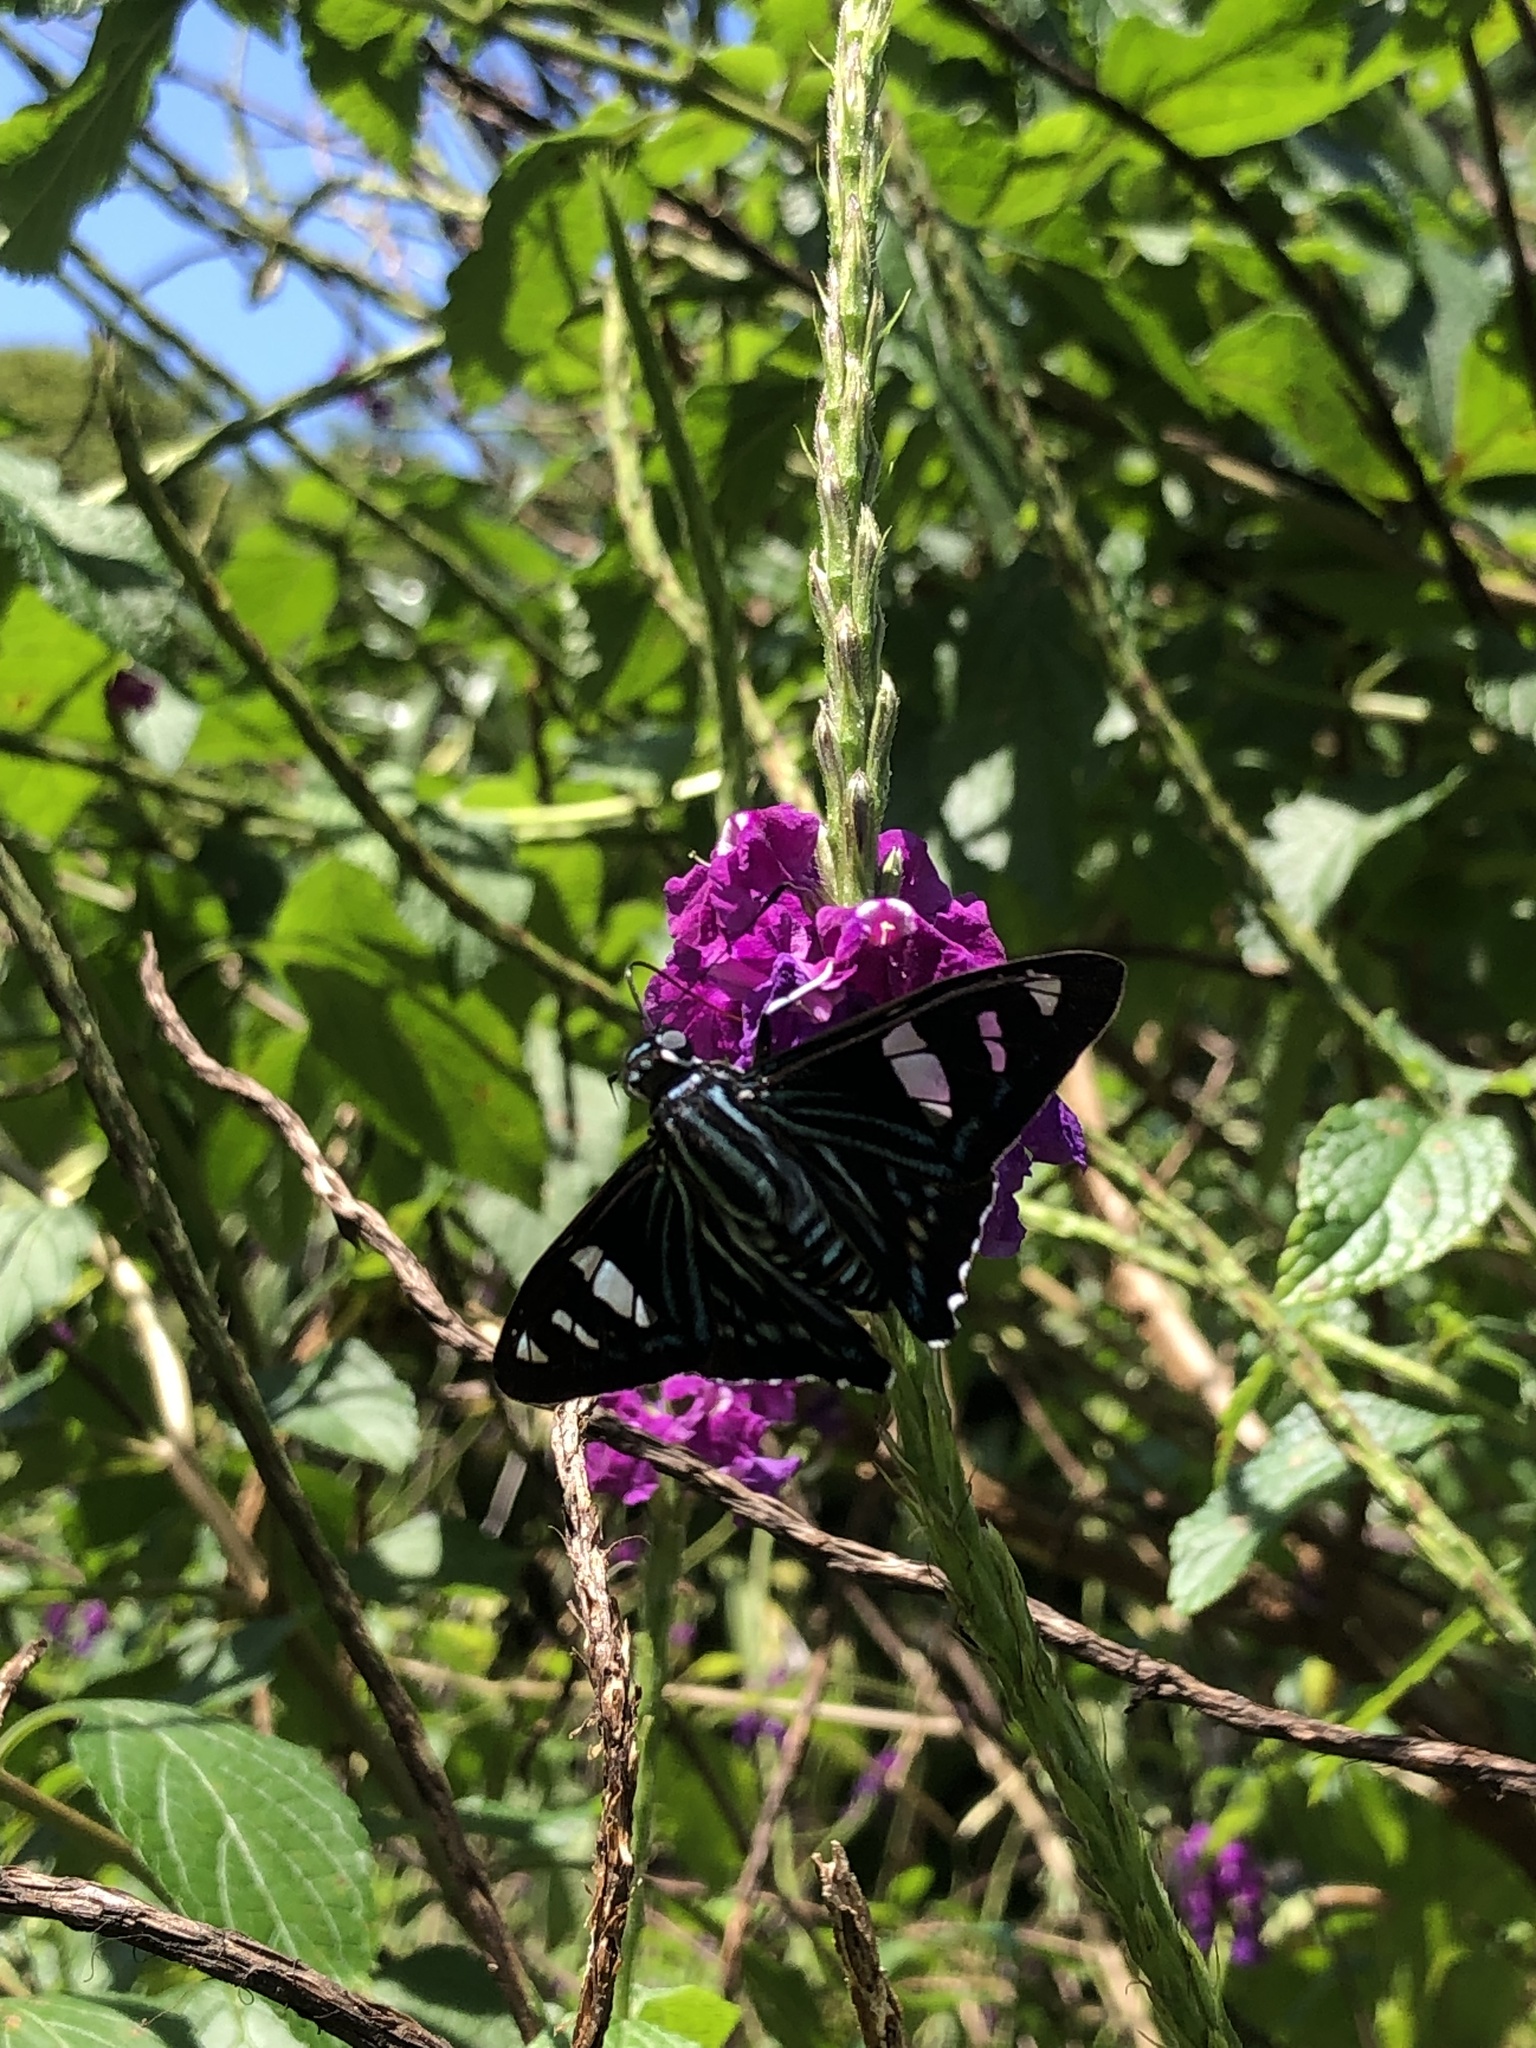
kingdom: Animalia
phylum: Arthropoda
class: Insecta
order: Lepidoptera
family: Hesperiidae
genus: Phocides
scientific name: Phocides pigmalion
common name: Mangrove skipper
